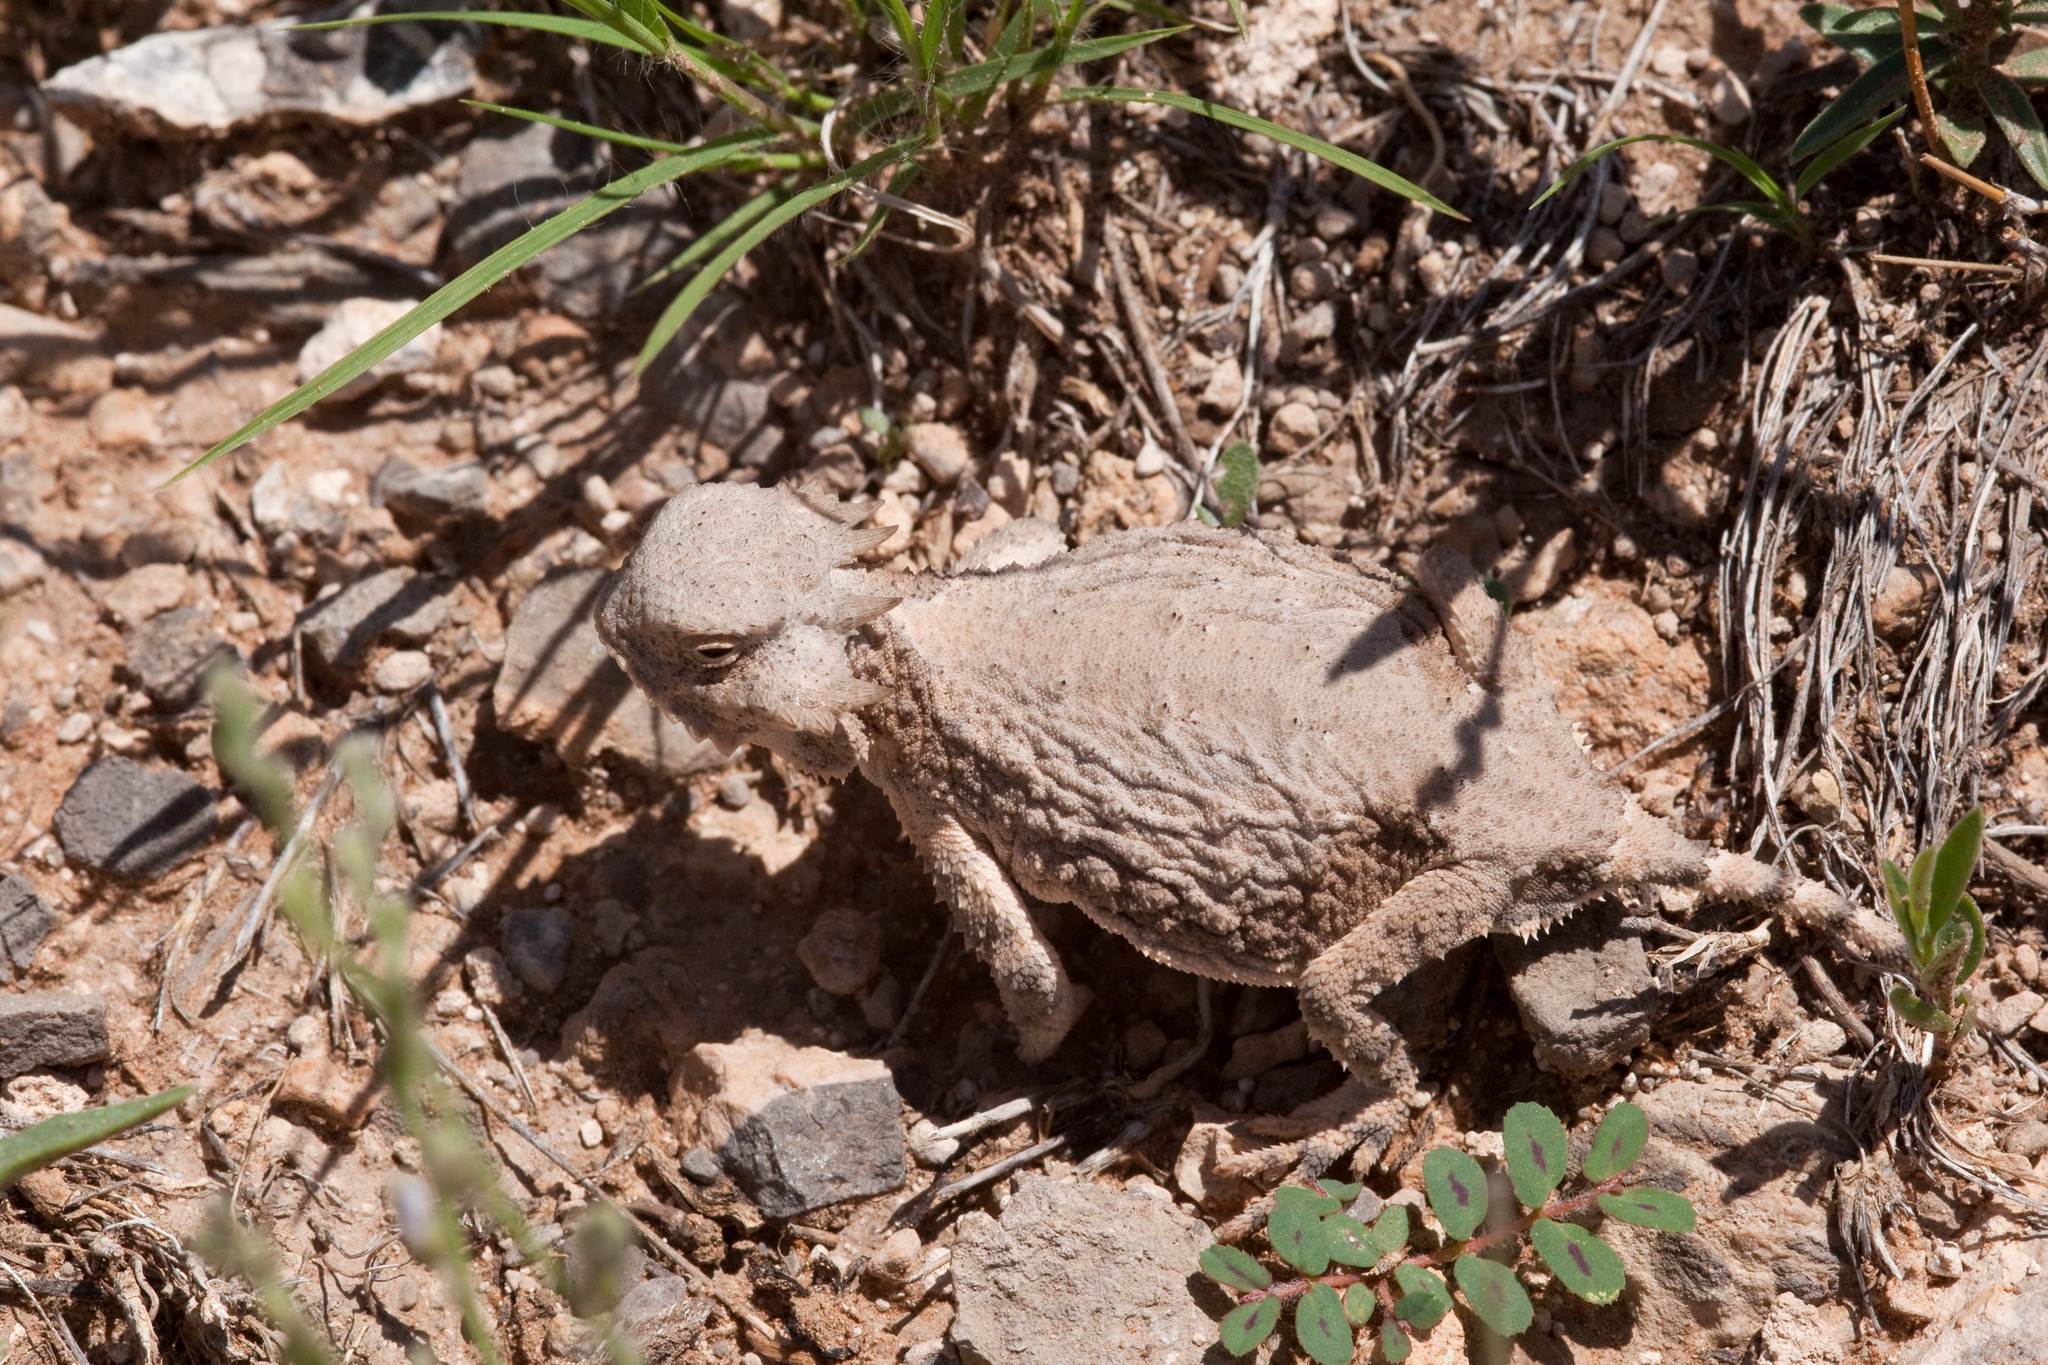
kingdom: Animalia
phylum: Chordata
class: Squamata
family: Phrynosomatidae
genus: Phrynosoma
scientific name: Phrynosoma modestum
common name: Roundtail horned lizard
